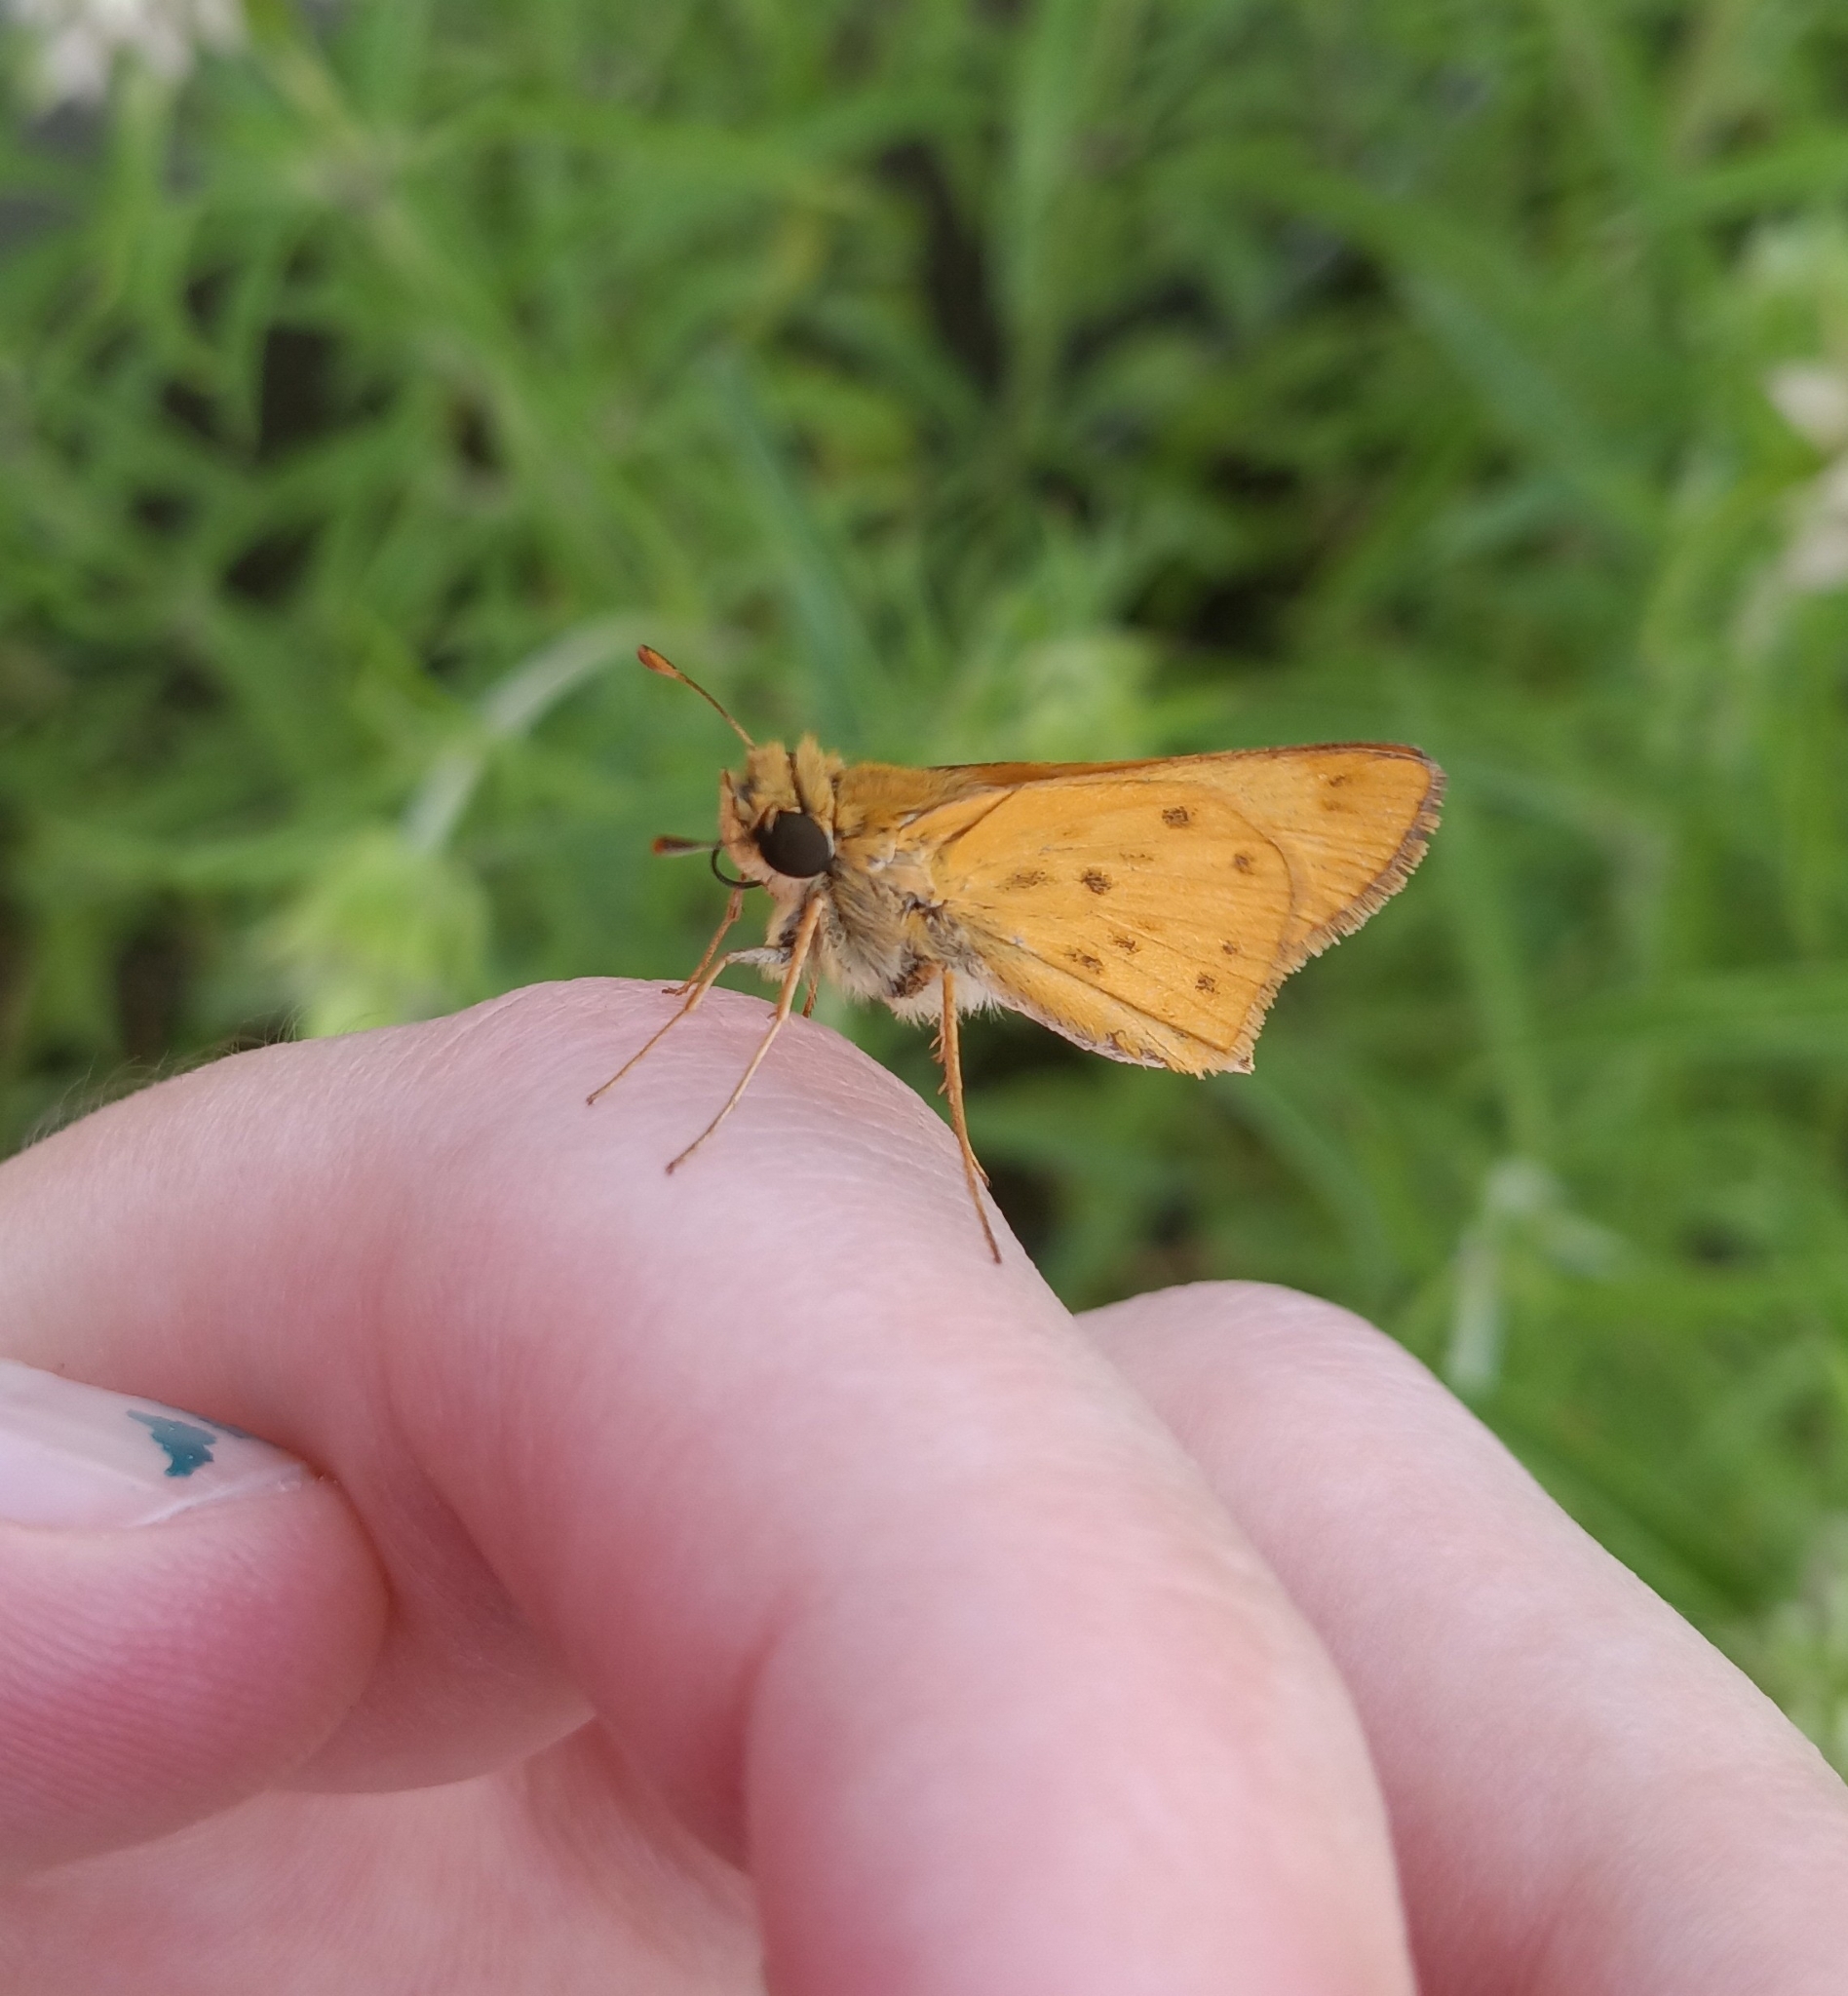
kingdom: Animalia
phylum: Arthropoda
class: Insecta
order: Lepidoptera
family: Hesperiidae
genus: Hylephila
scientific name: Hylephila phyleus
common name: Fiery skipper
